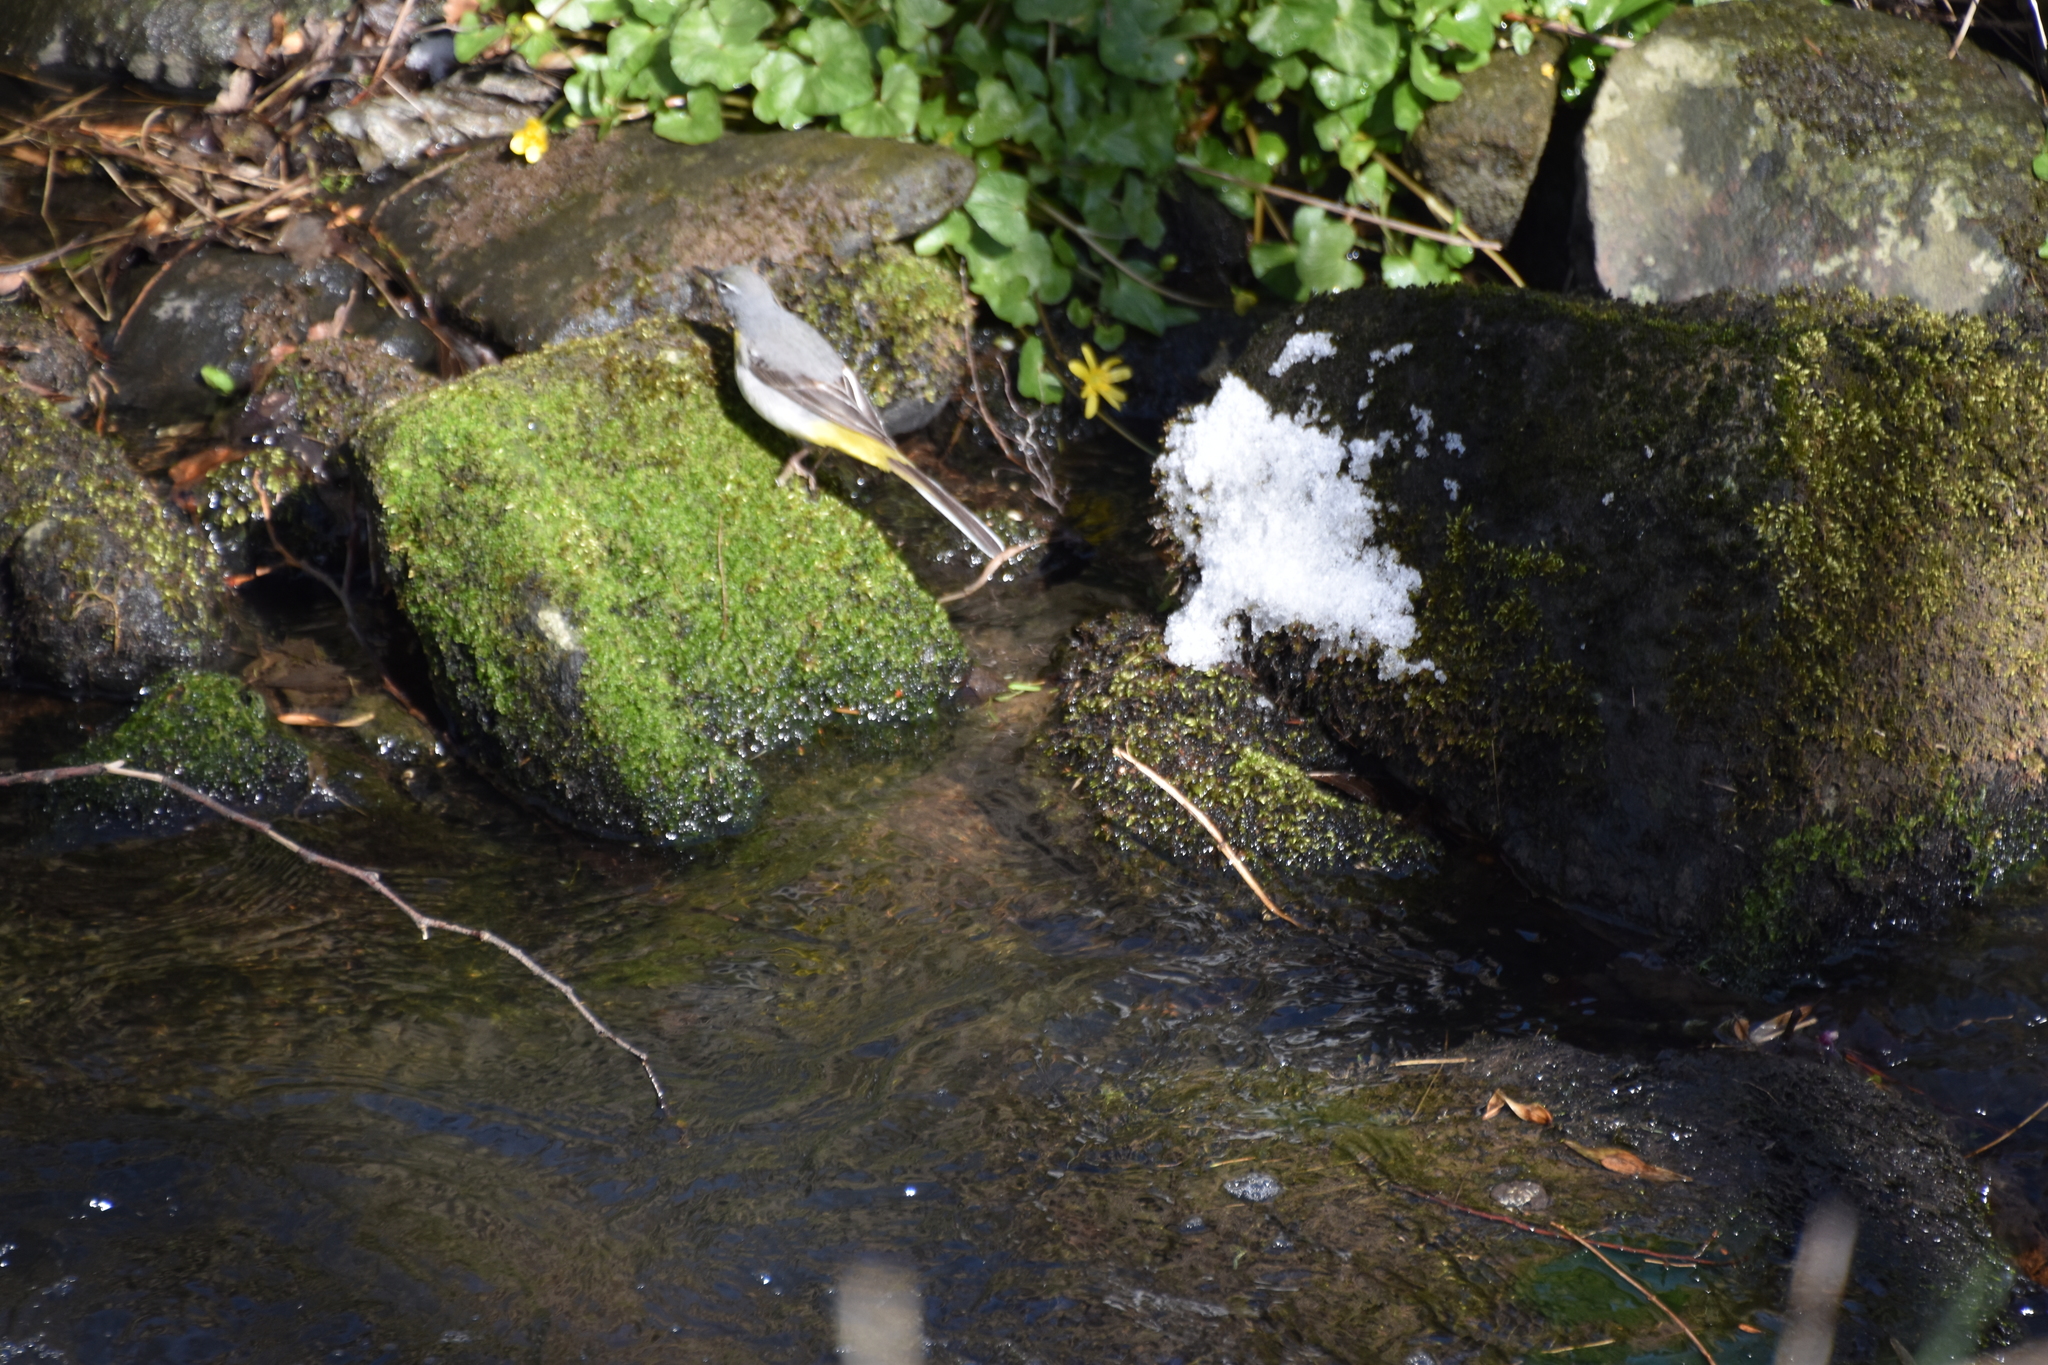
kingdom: Animalia
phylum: Chordata
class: Aves
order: Passeriformes
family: Motacillidae
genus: Motacilla
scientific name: Motacilla cinerea
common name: Grey wagtail
